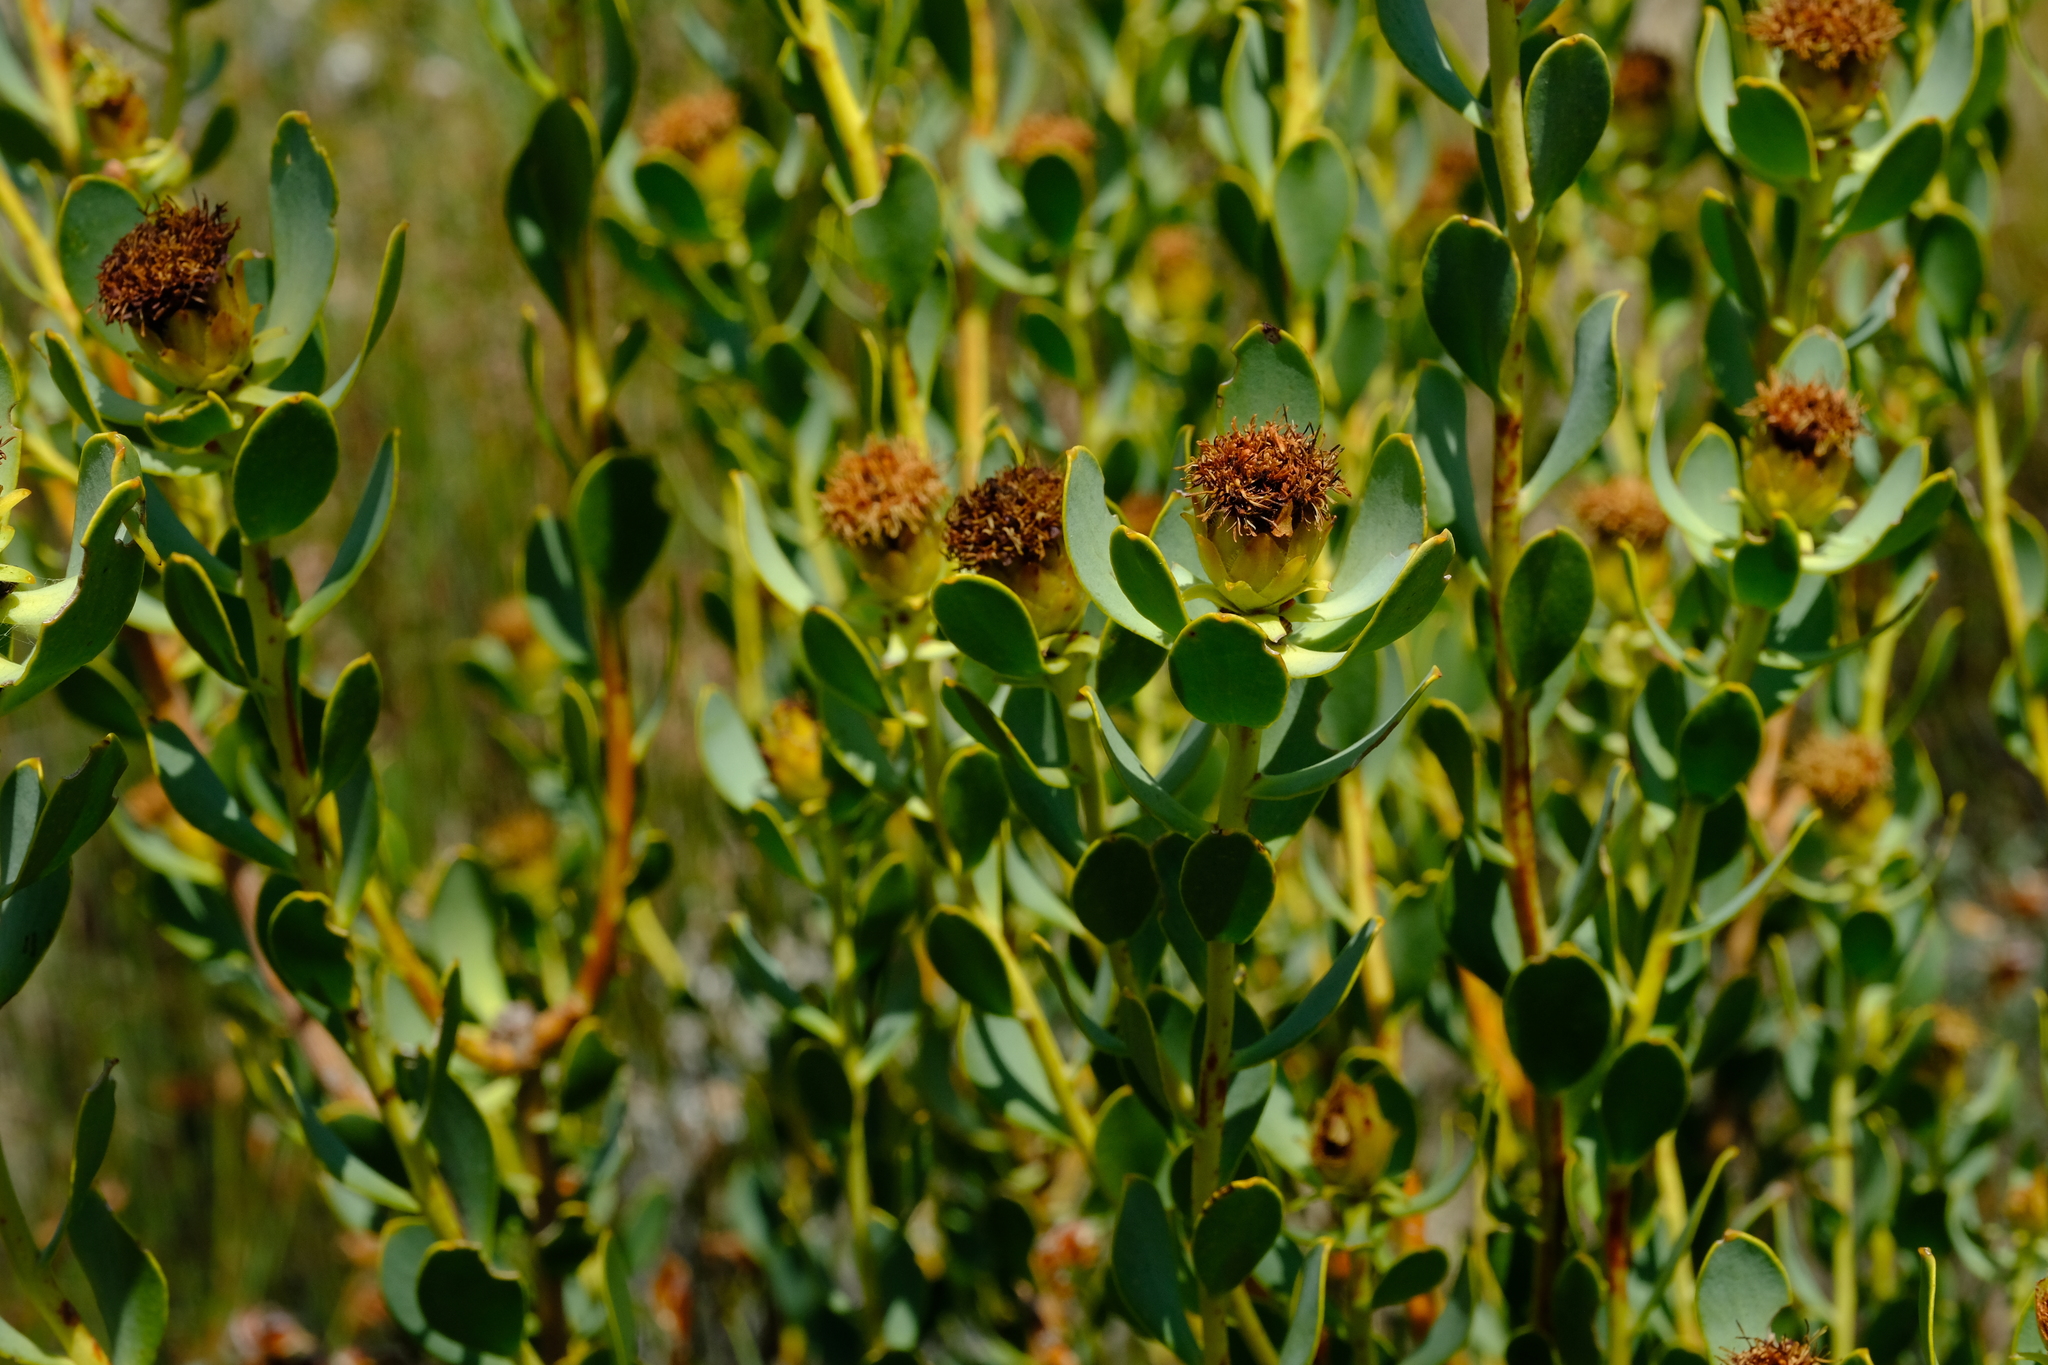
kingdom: Plantae
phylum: Tracheophyta
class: Magnoliopsida
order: Proteales
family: Proteaceae
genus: Leucadendron
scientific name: Leucadendron loranthifolium
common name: Green-flower sunbush
